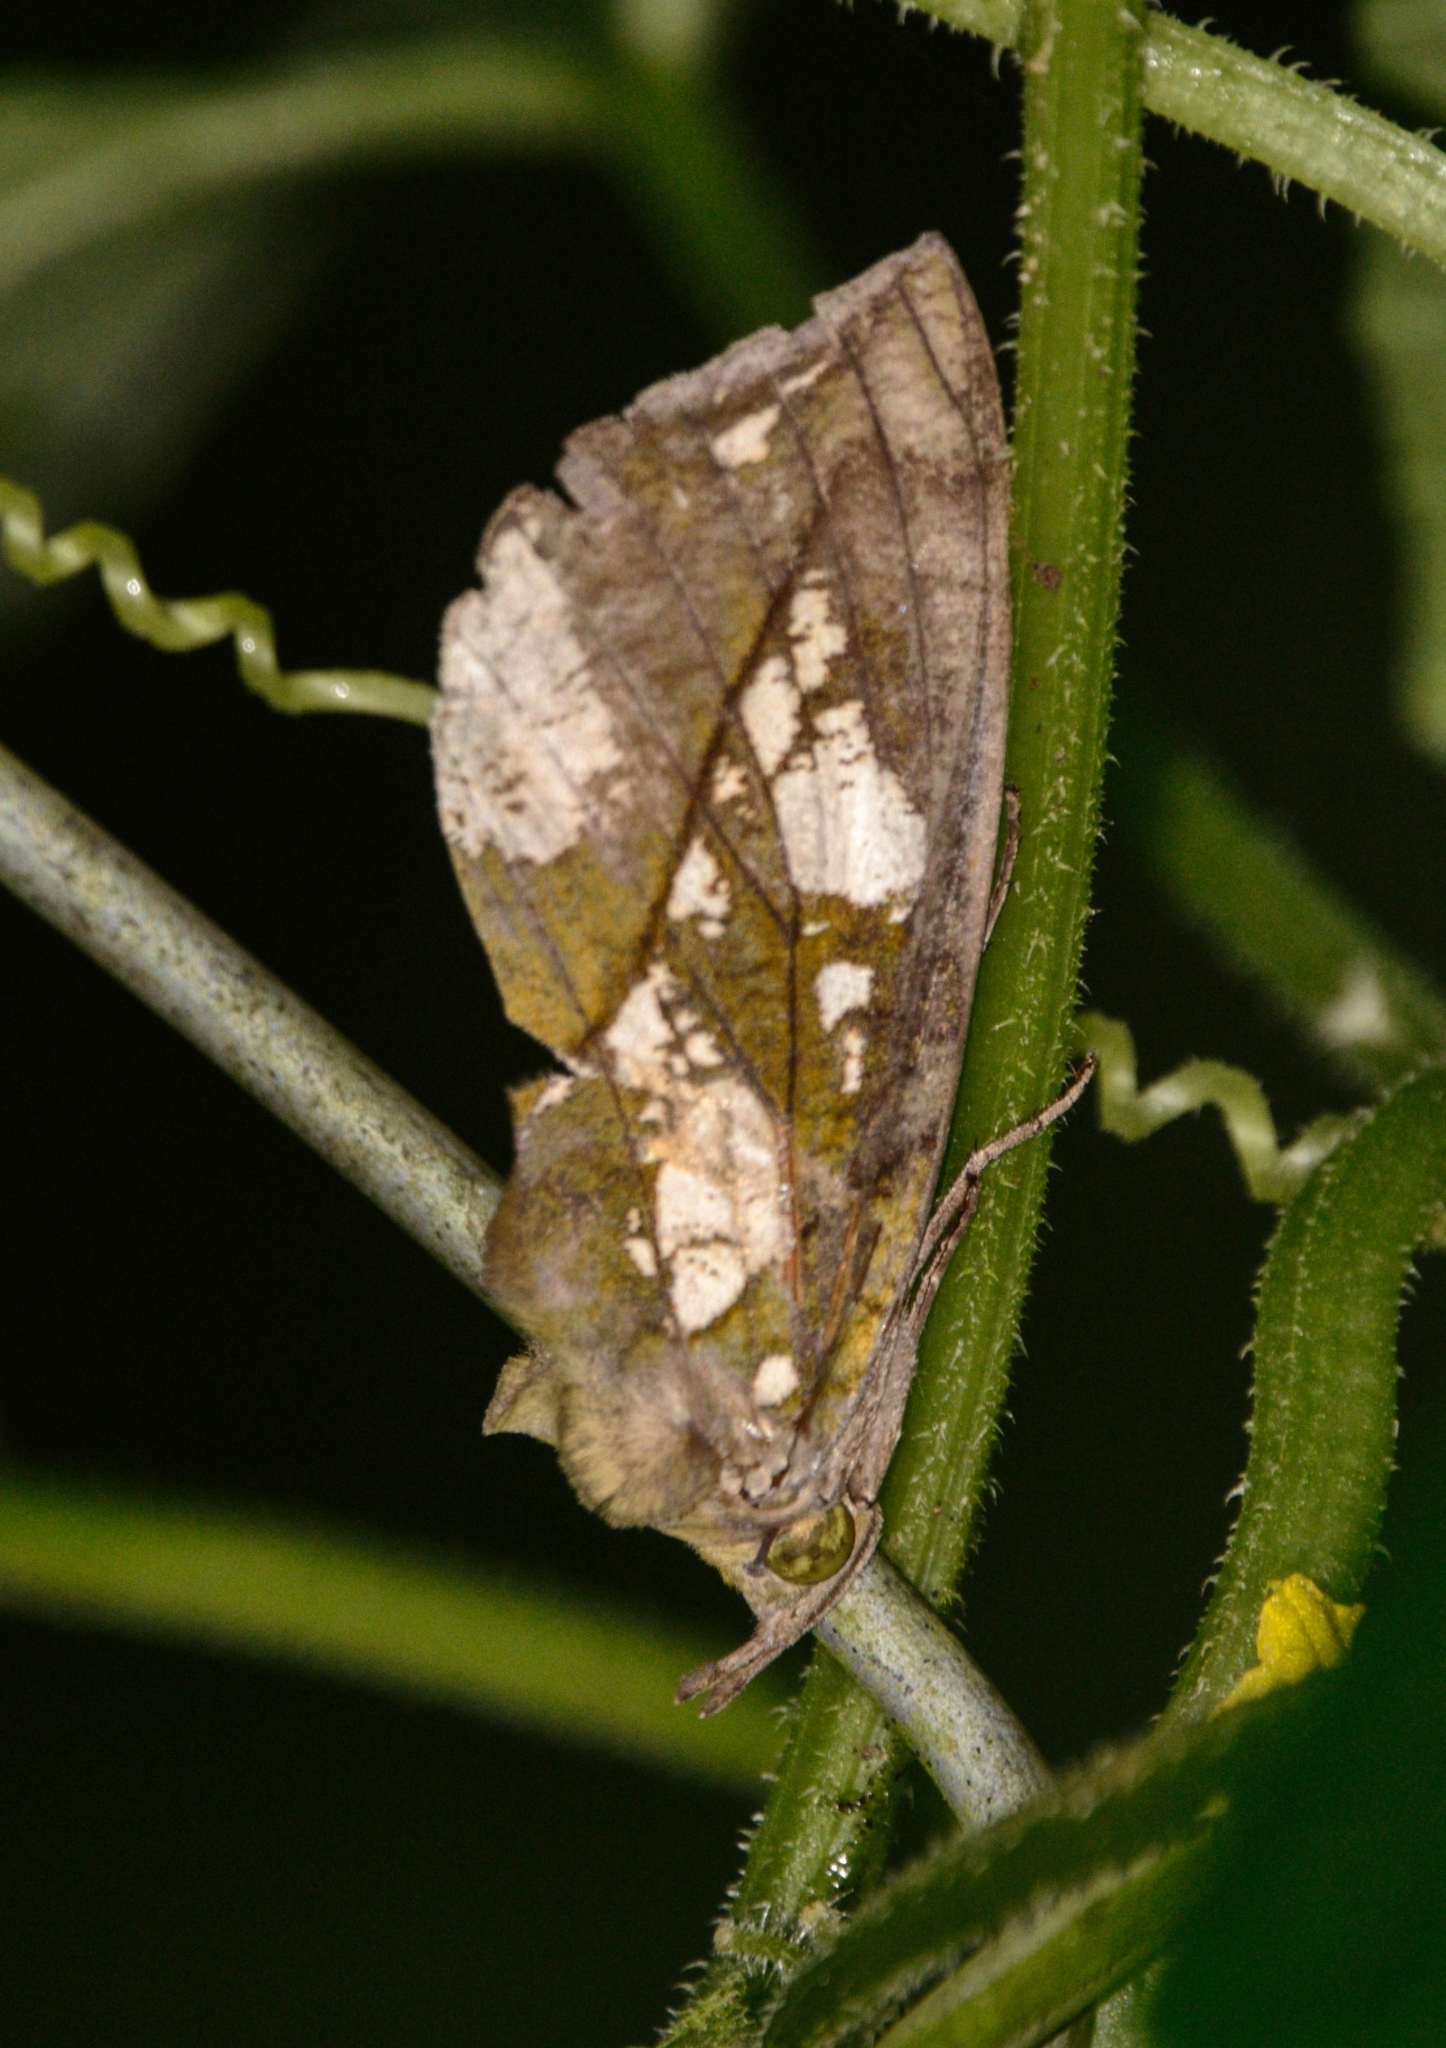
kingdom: Animalia
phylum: Arthropoda
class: Insecta
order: Lepidoptera
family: Erebidae
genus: Eudocima
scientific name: Eudocima hypermnestra
